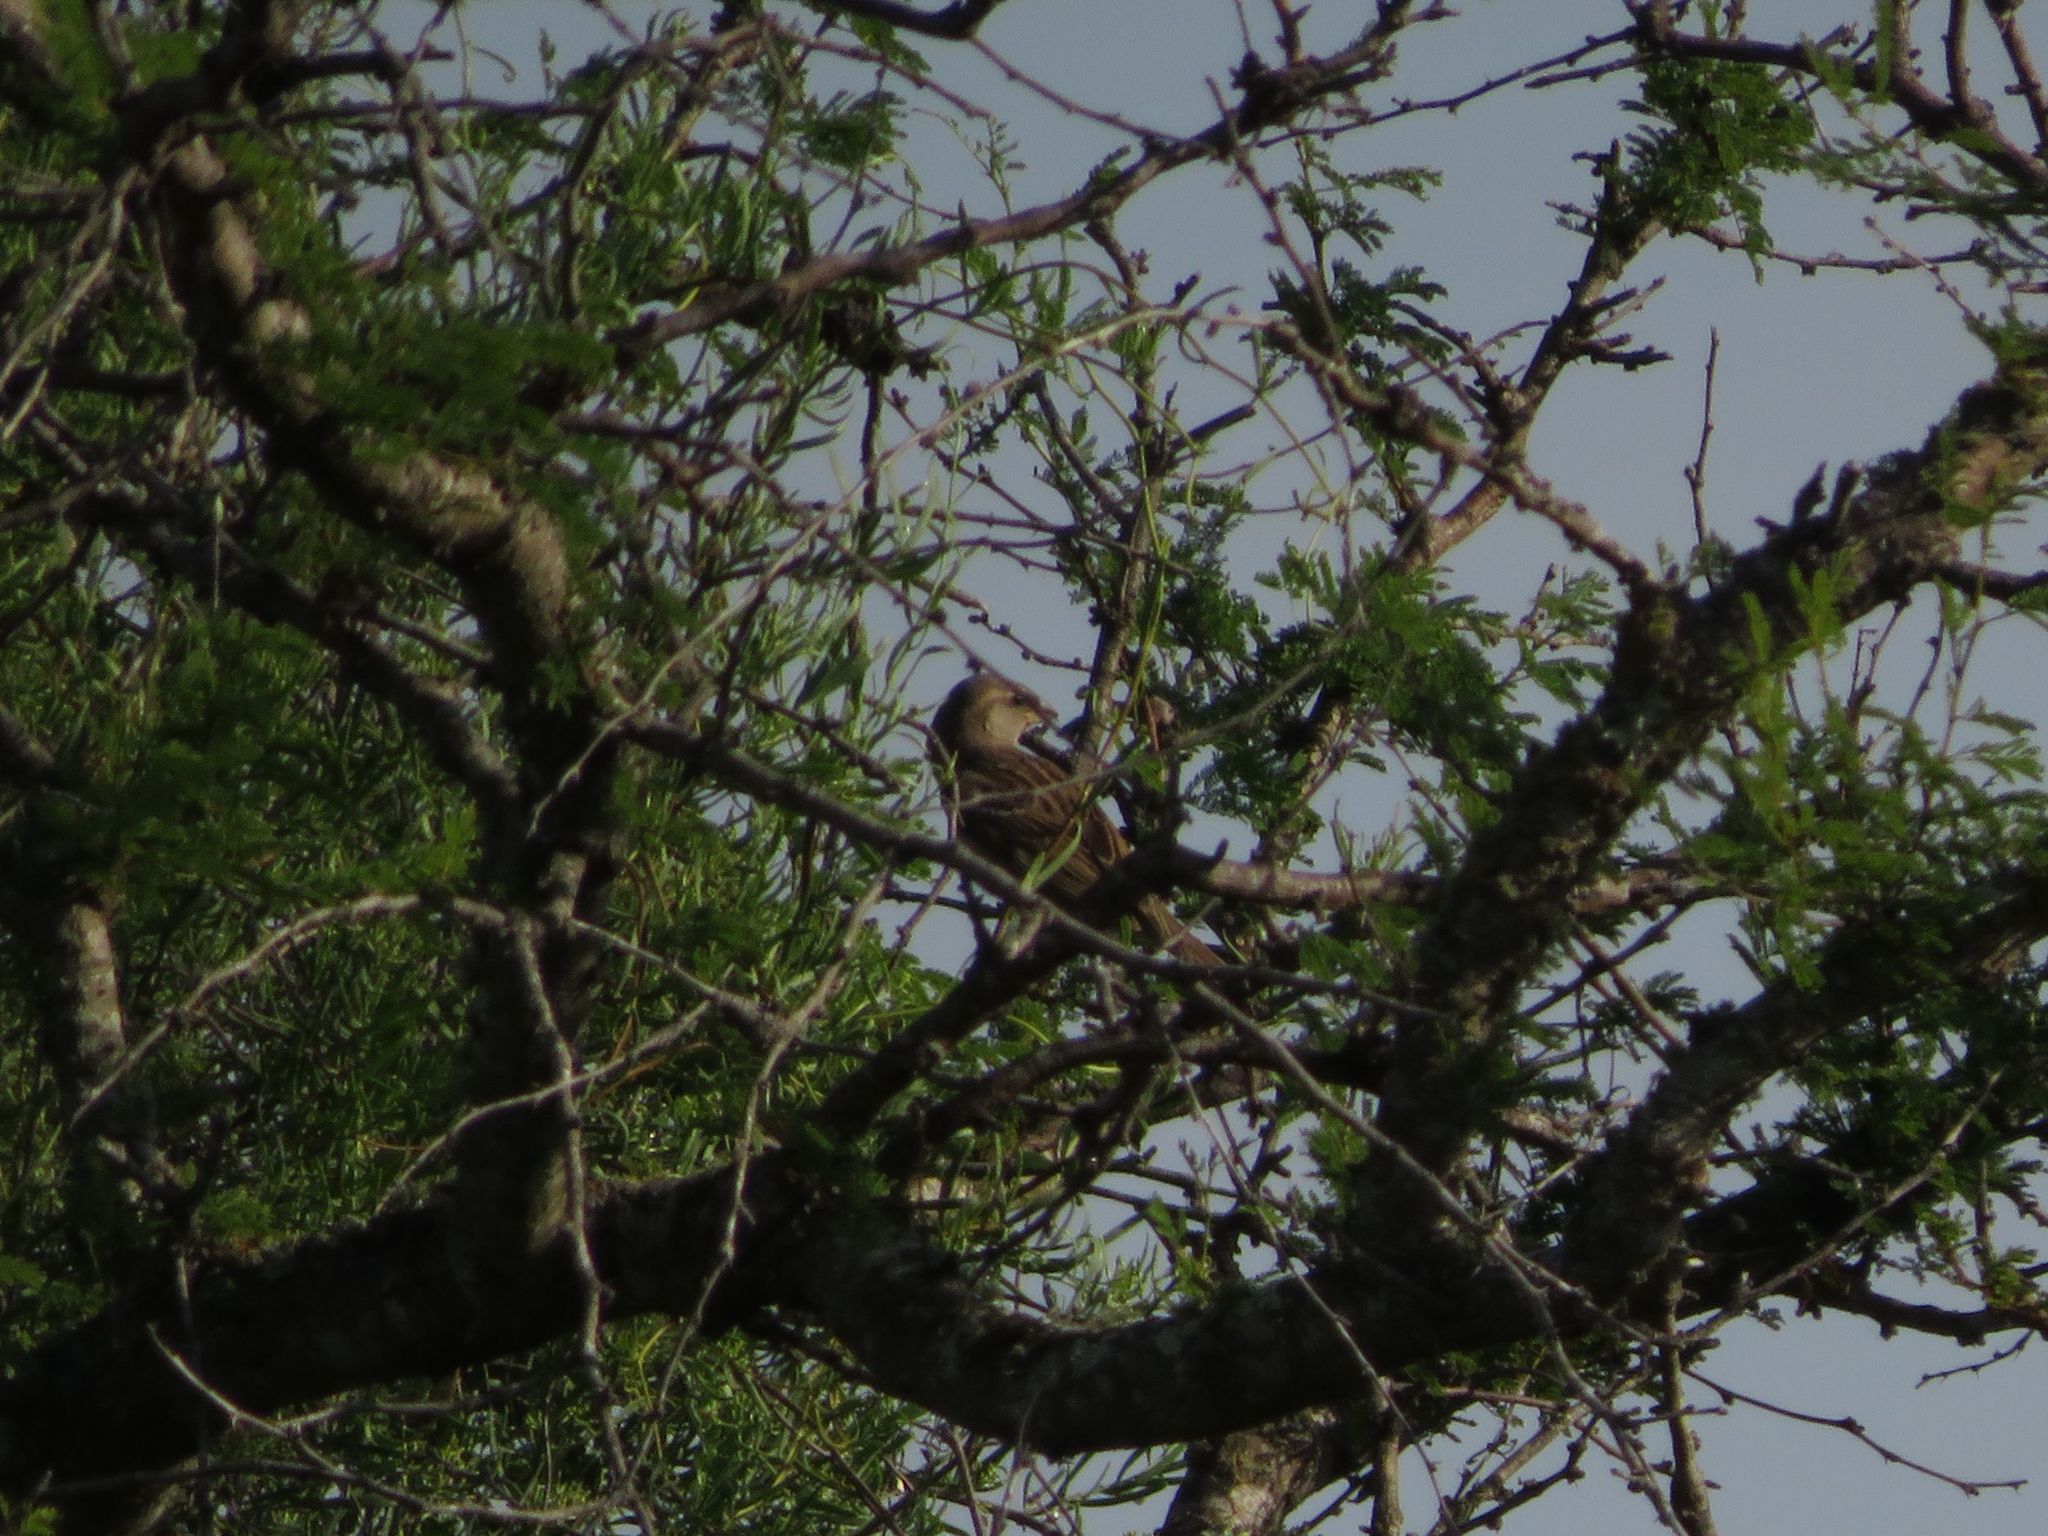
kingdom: Animalia
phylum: Chordata
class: Aves
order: Passeriformes
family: Passeridae
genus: Passer
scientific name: Passer domesticus
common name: House sparrow
